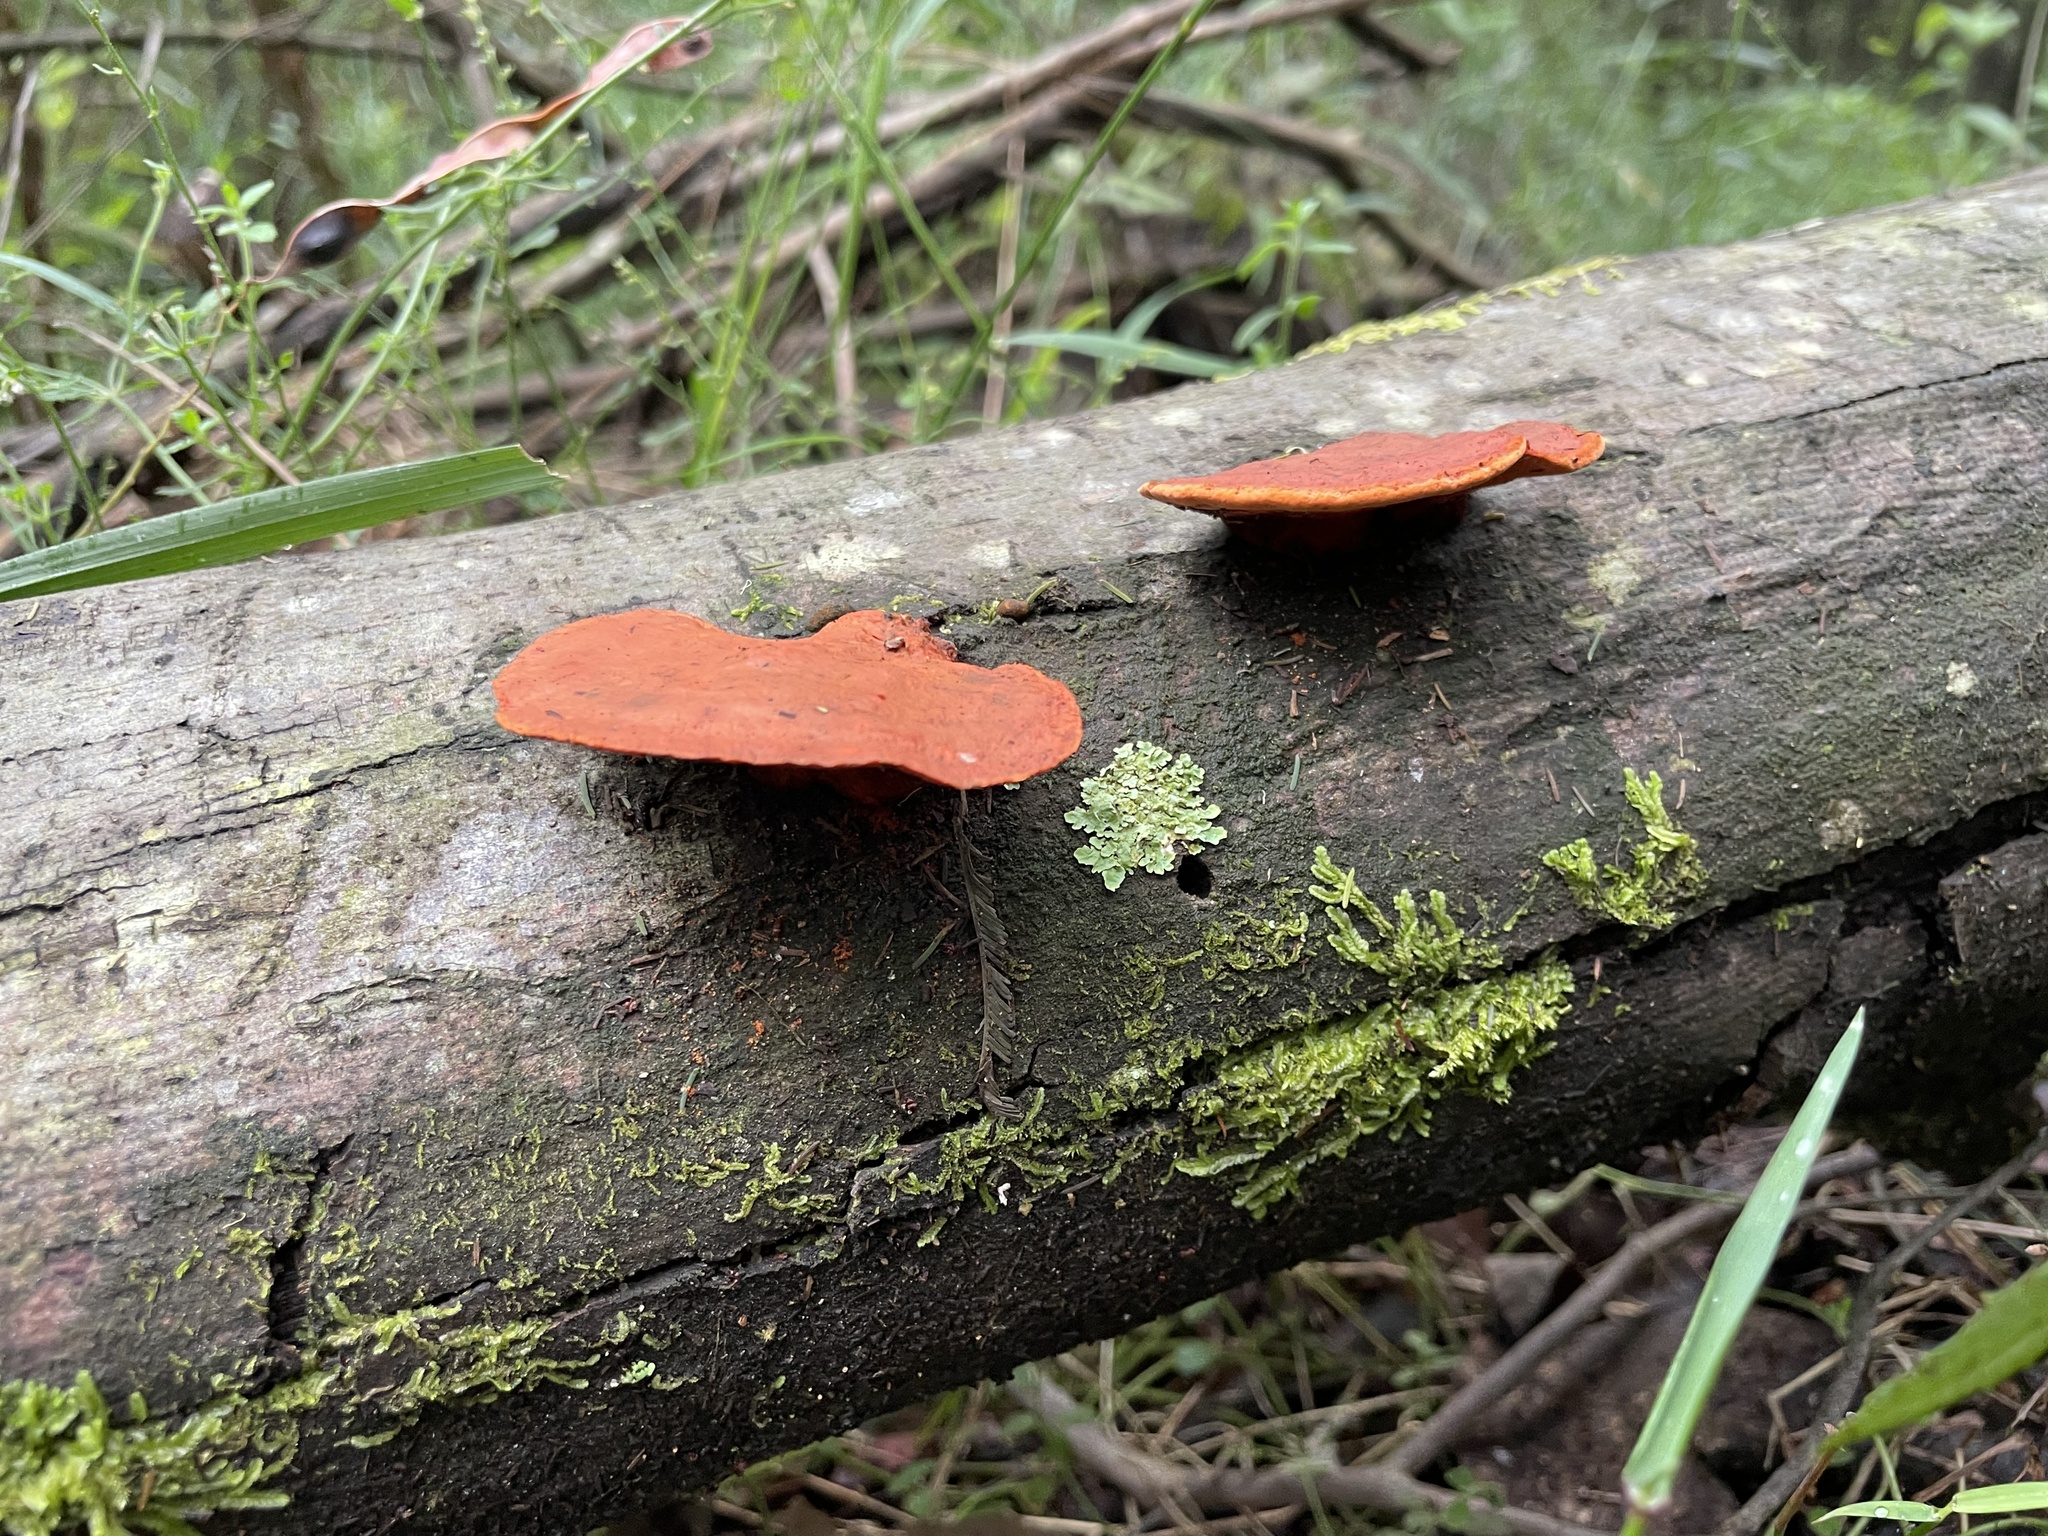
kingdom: Fungi
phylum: Basidiomycota
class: Agaricomycetes
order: Polyporales
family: Polyporaceae
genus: Trametes
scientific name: Trametes coccinea
